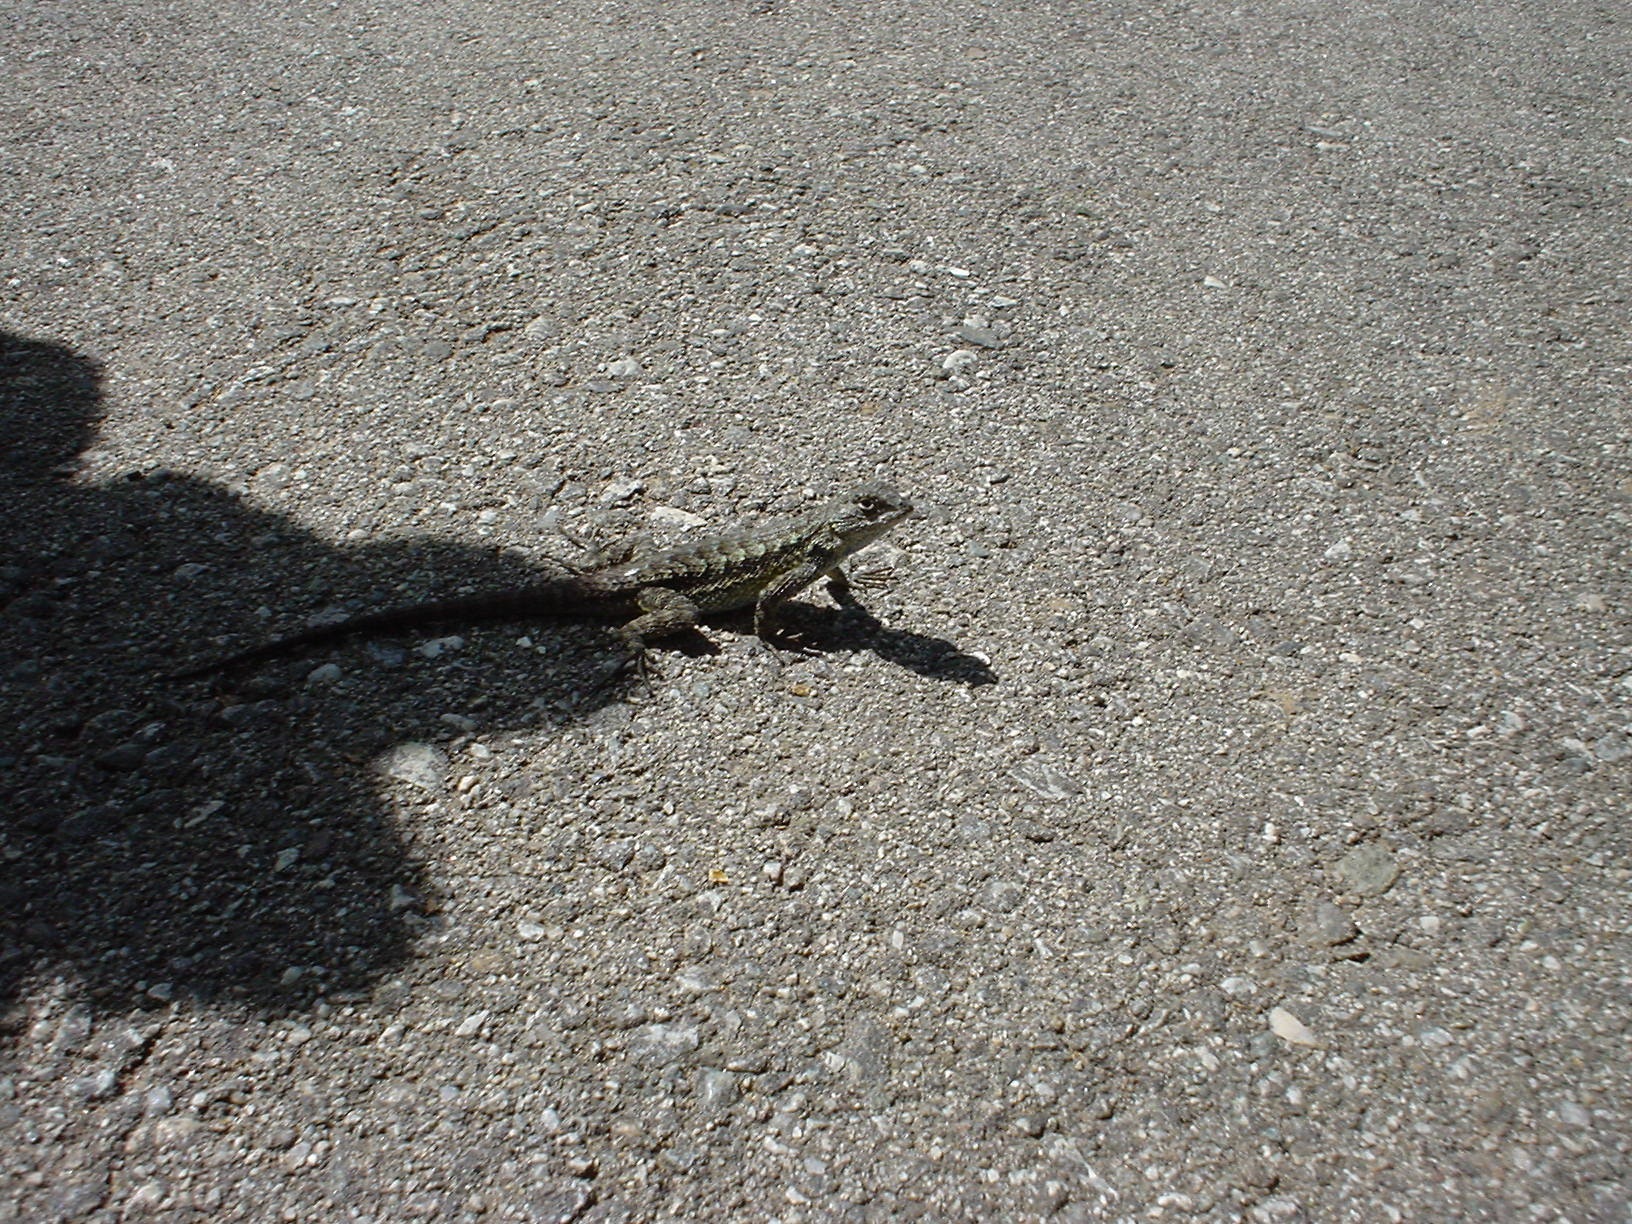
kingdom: Animalia
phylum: Chordata
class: Squamata
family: Phrynosomatidae
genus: Sceloporus
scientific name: Sceloporus occidentalis
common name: Western fence lizard
